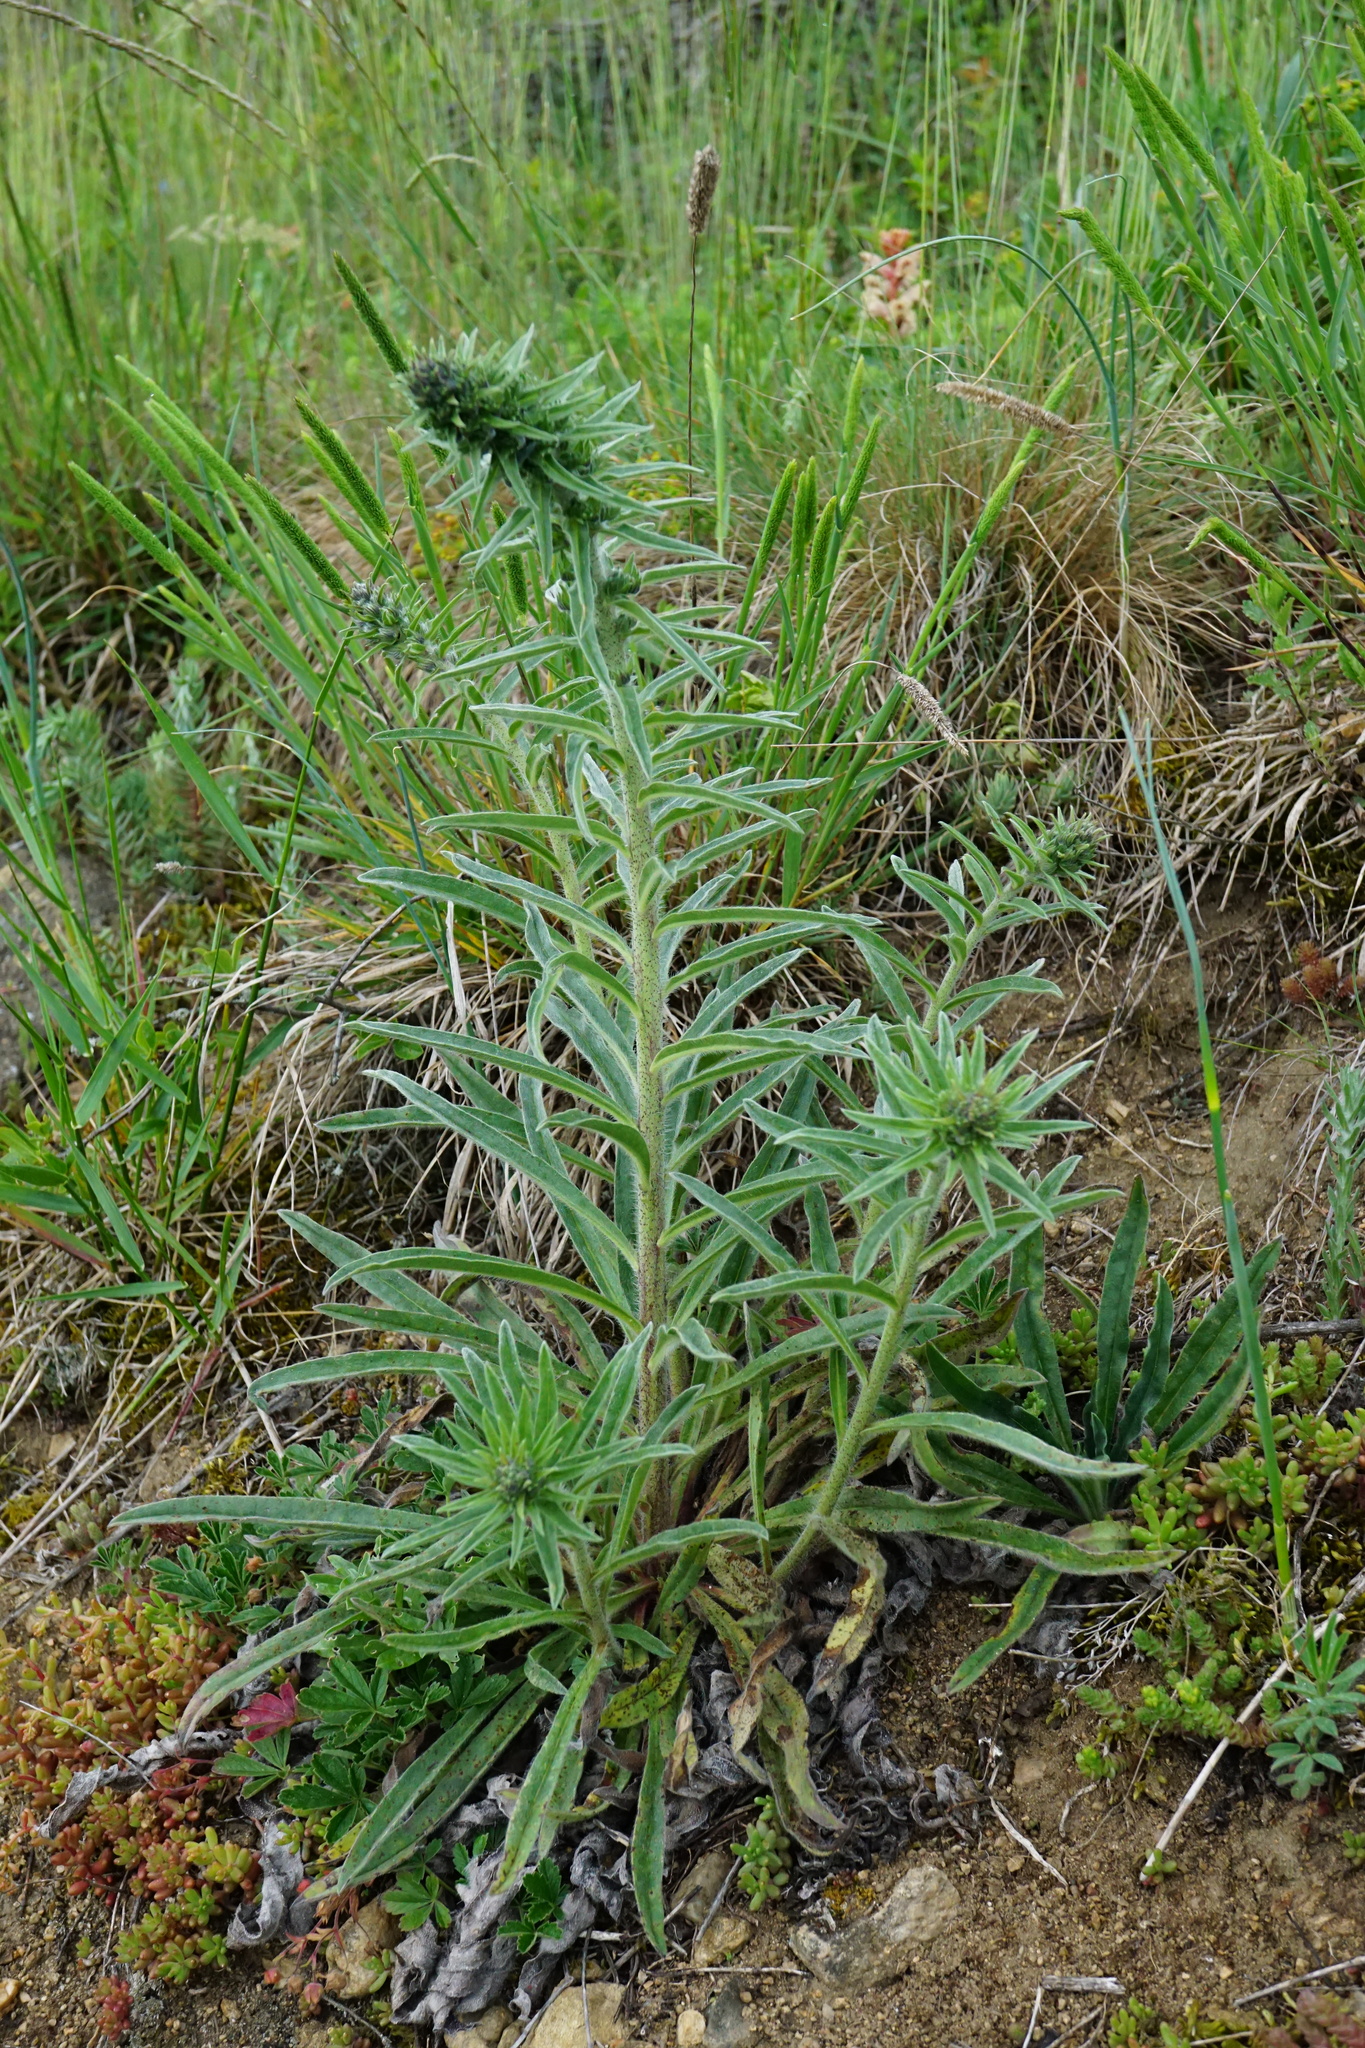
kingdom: Plantae
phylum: Tracheophyta
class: Magnoliopsida
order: Boraginales
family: Boraginaceae
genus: Echium
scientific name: Echium vulgare
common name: Common viper's bugloss
